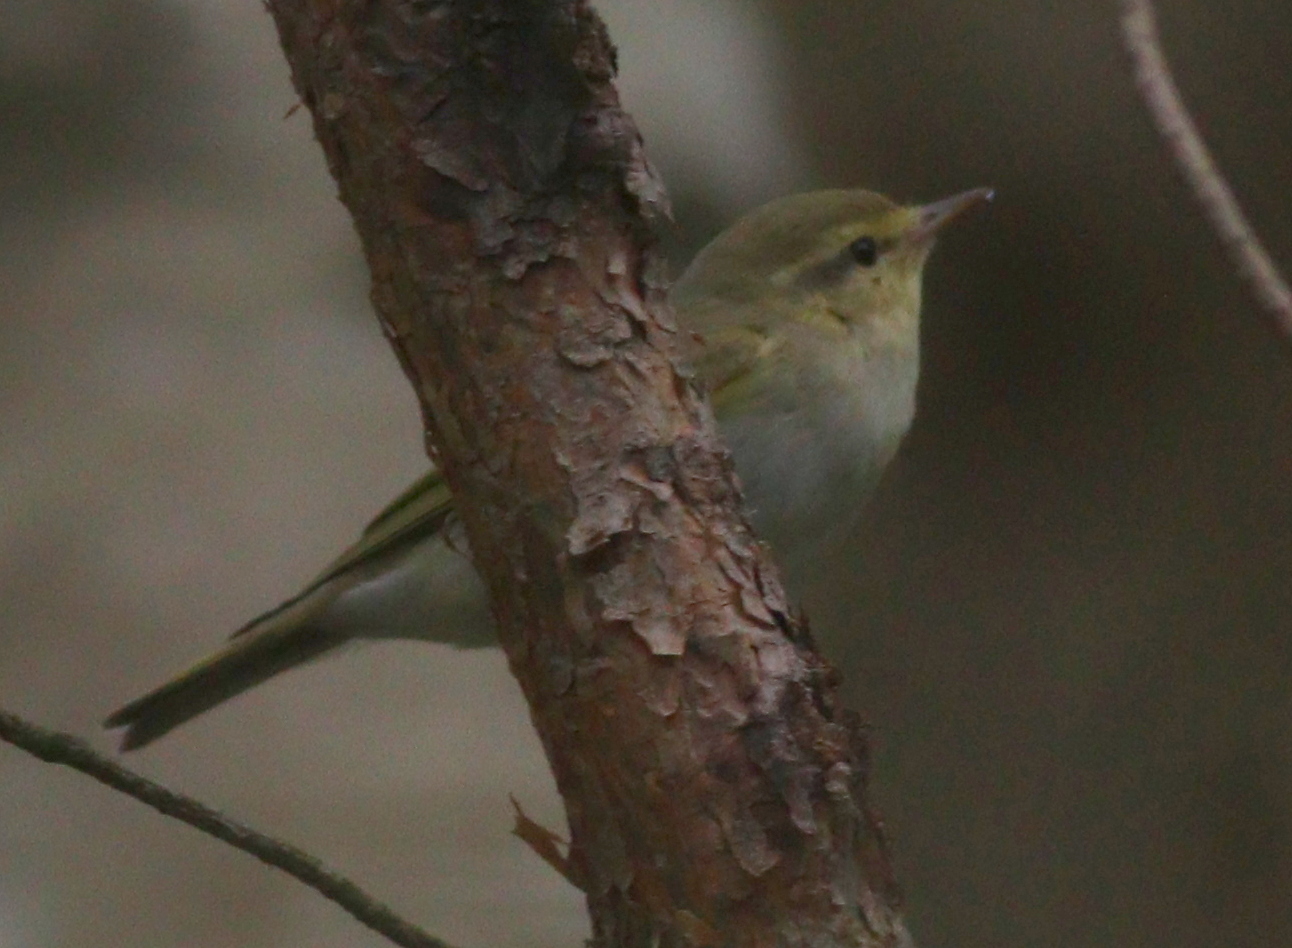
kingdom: Animalia
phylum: Chordata
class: Aves
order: Passeriformes
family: Phylloscopidae
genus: Phylloscopus
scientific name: Phylloscopus sibillatrix
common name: Wood warbler
